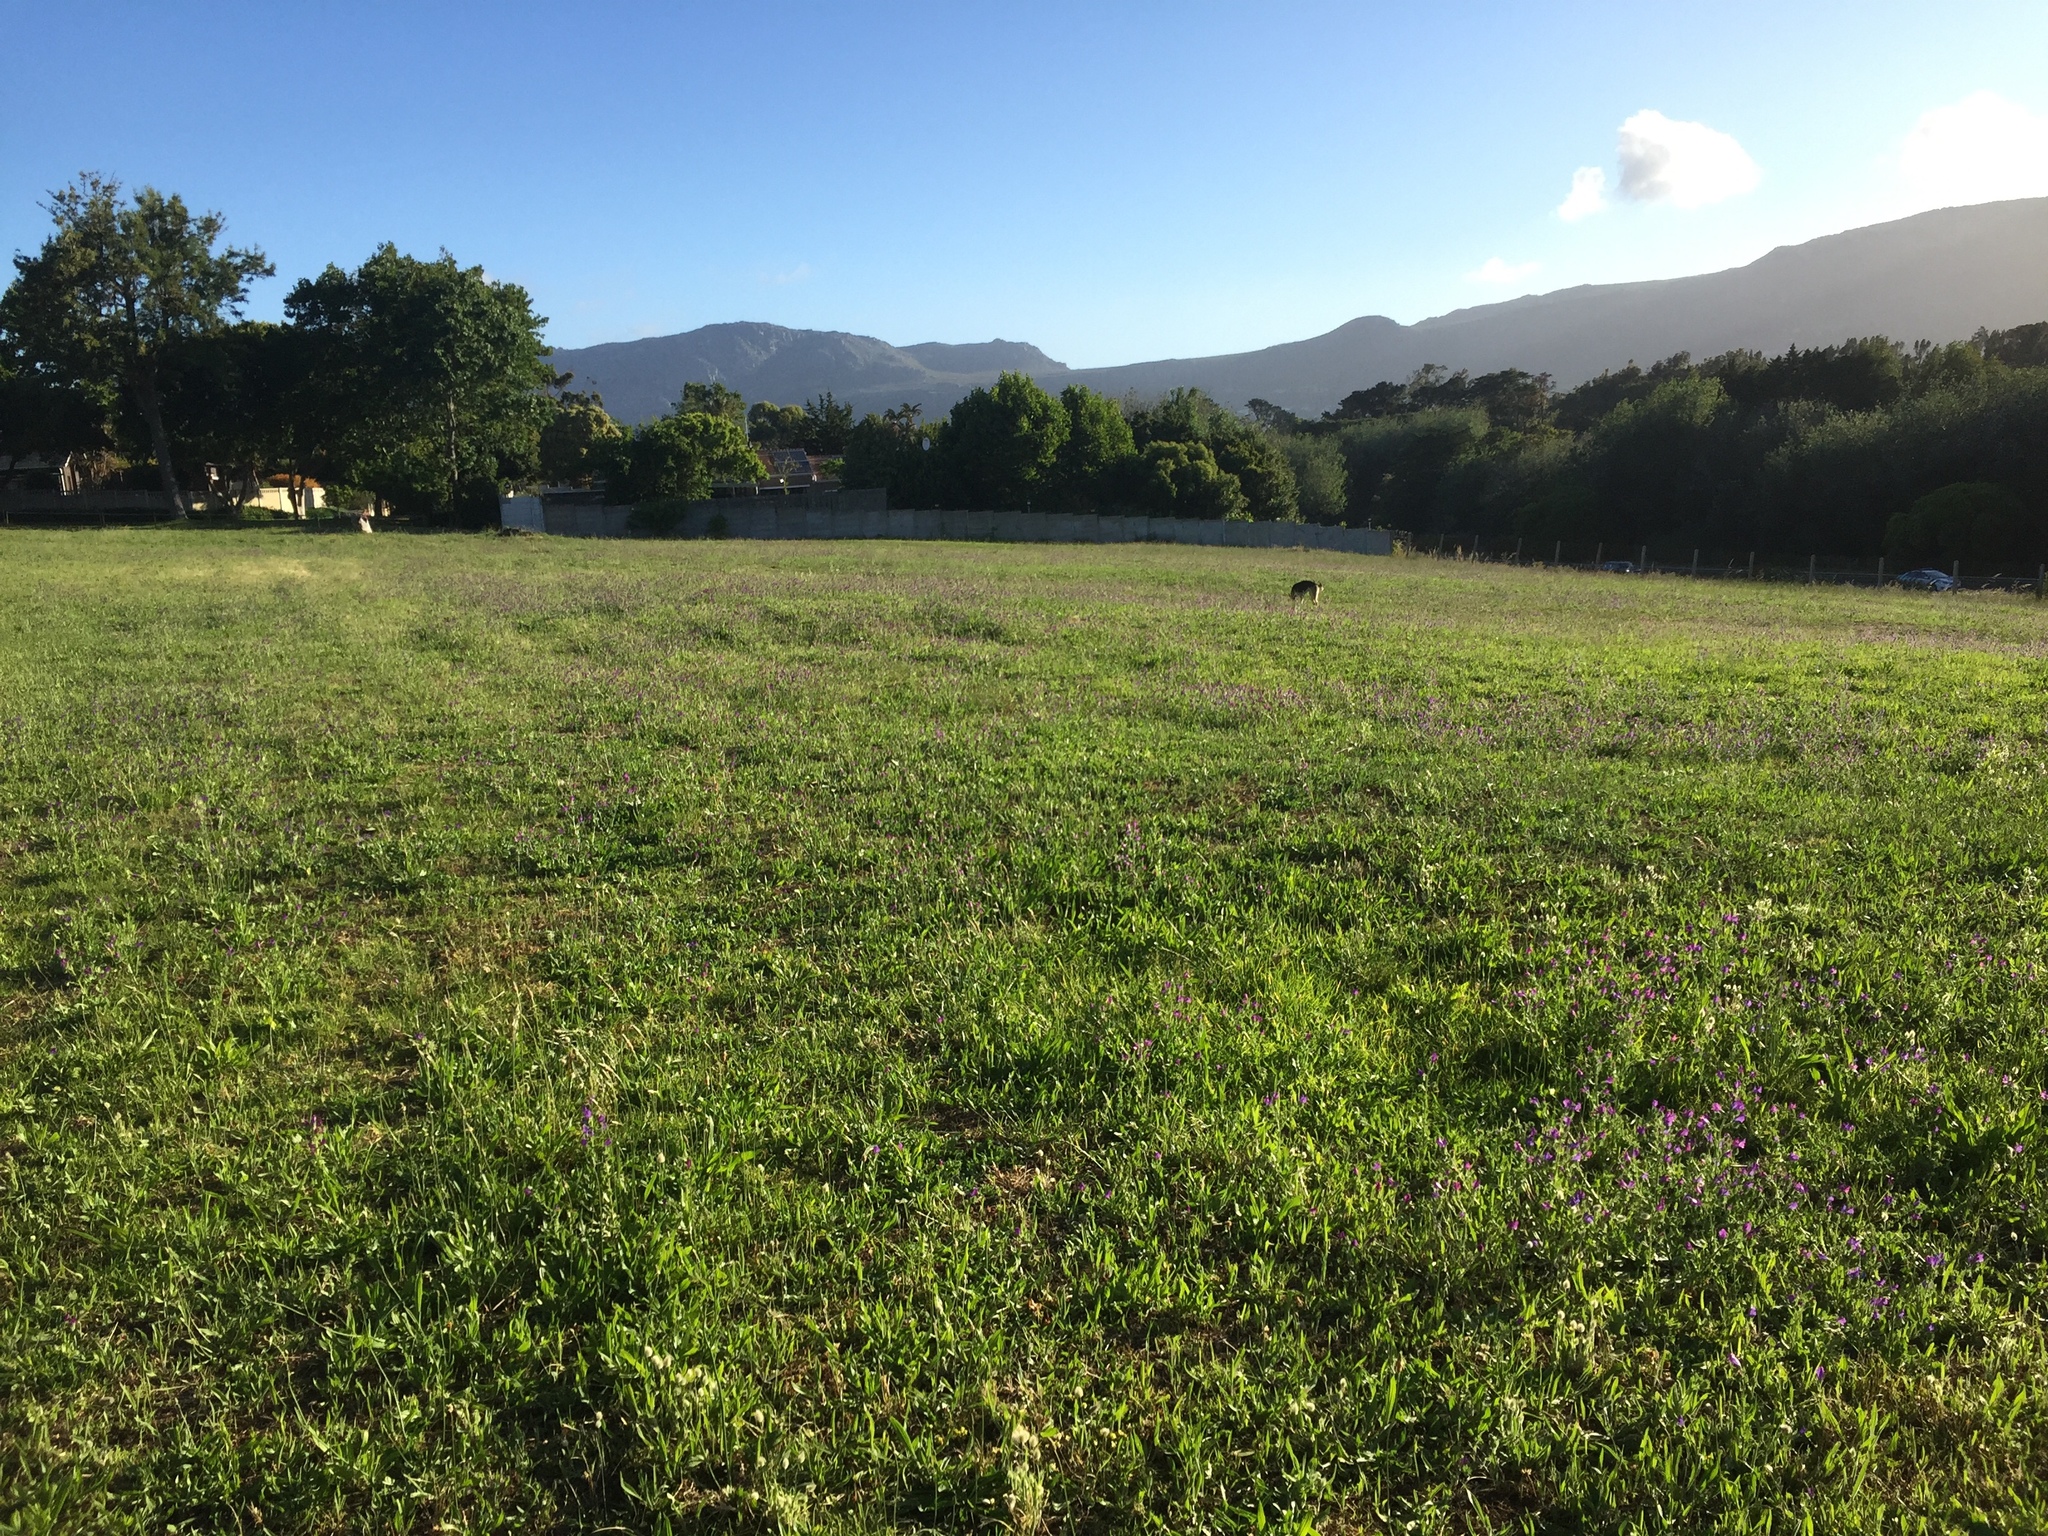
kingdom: Plantae
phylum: Tracheophyta
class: Magnoliopsida
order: Boraginales
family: Boraginaceae
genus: Echium
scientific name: Echium plantagineum
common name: Purple viper's-bugloss
